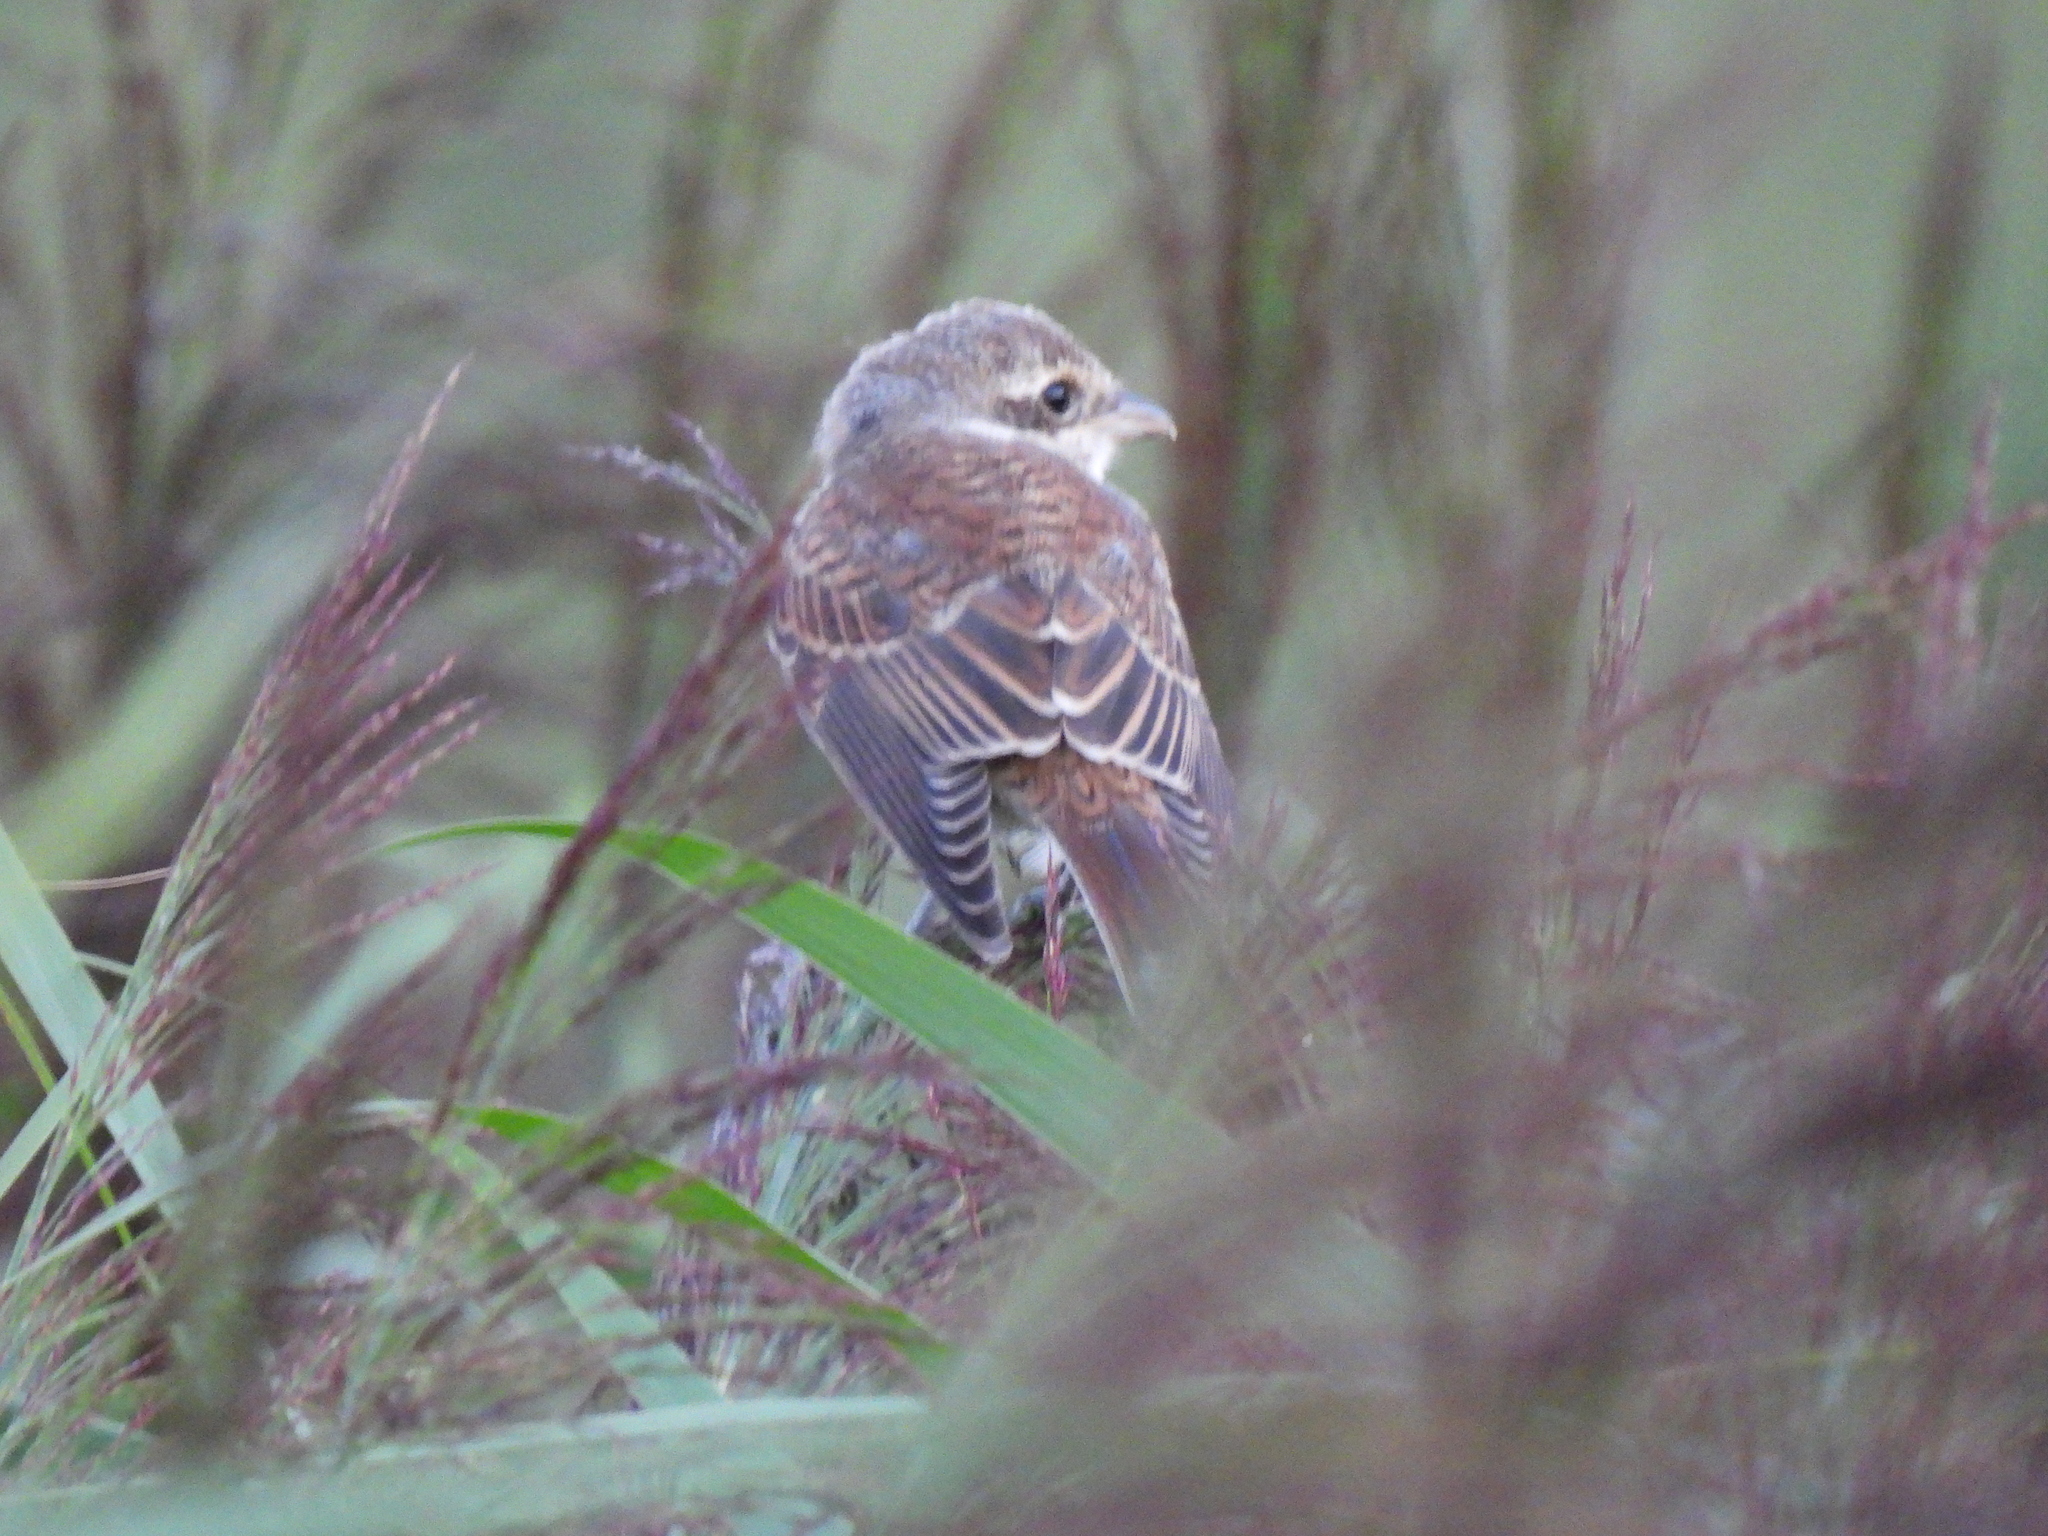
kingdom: Animalia
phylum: Chordata
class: Aves
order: Passeriformes
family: Laniidae
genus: Lanius
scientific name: Lanius collurio
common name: Red-backed shrike
